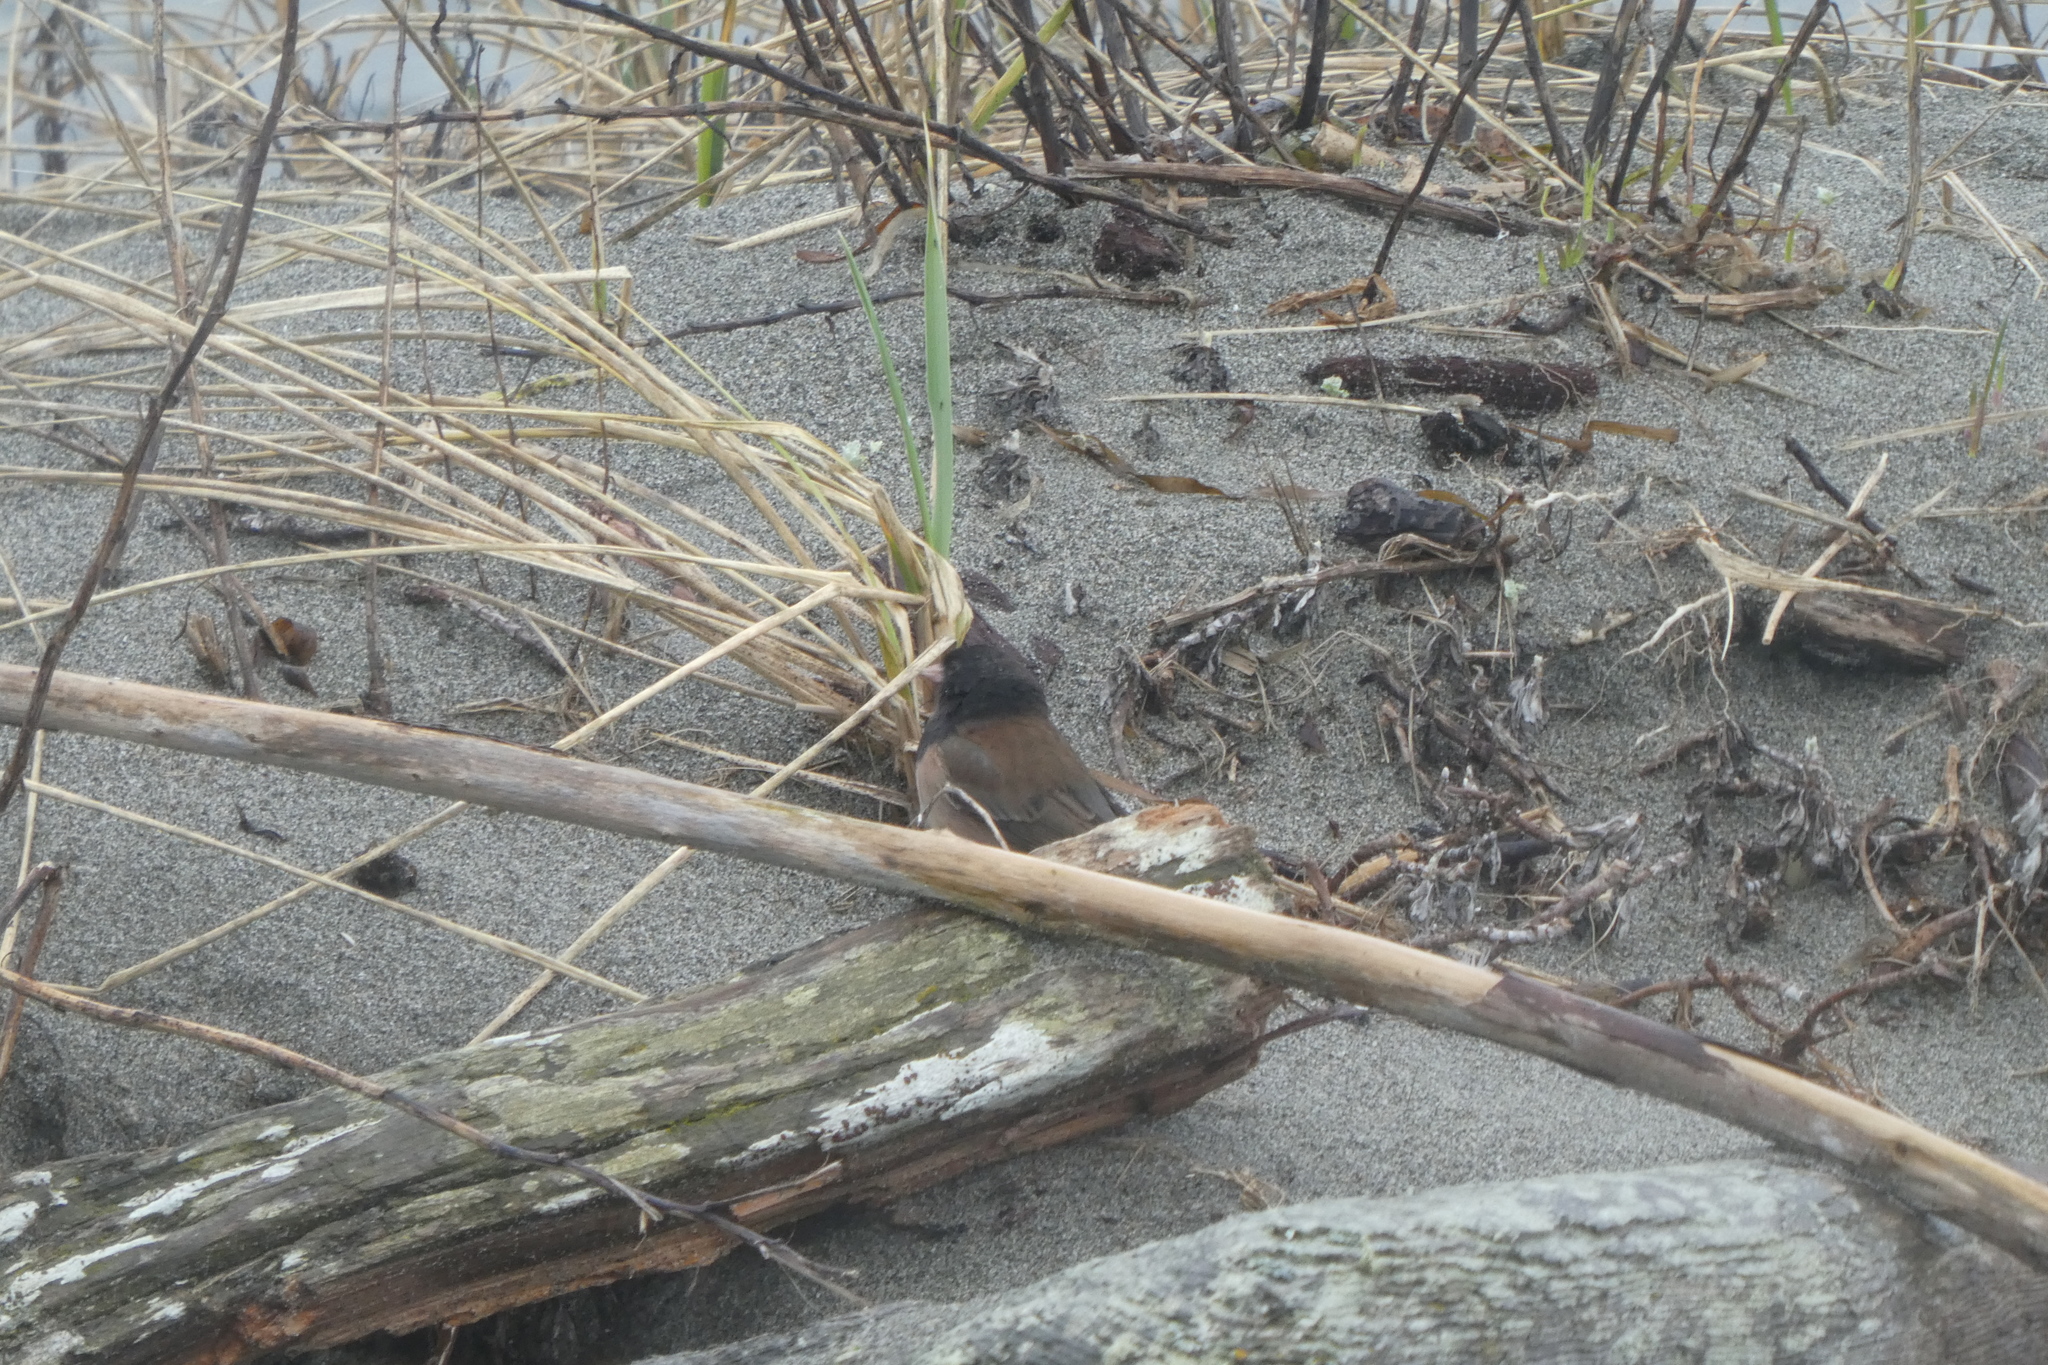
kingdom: Animalia
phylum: Chordata
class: Aves
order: Passeriformes
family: Passerellidae
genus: Junco
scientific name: Junco hyemalis
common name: Dark-eyed junco
